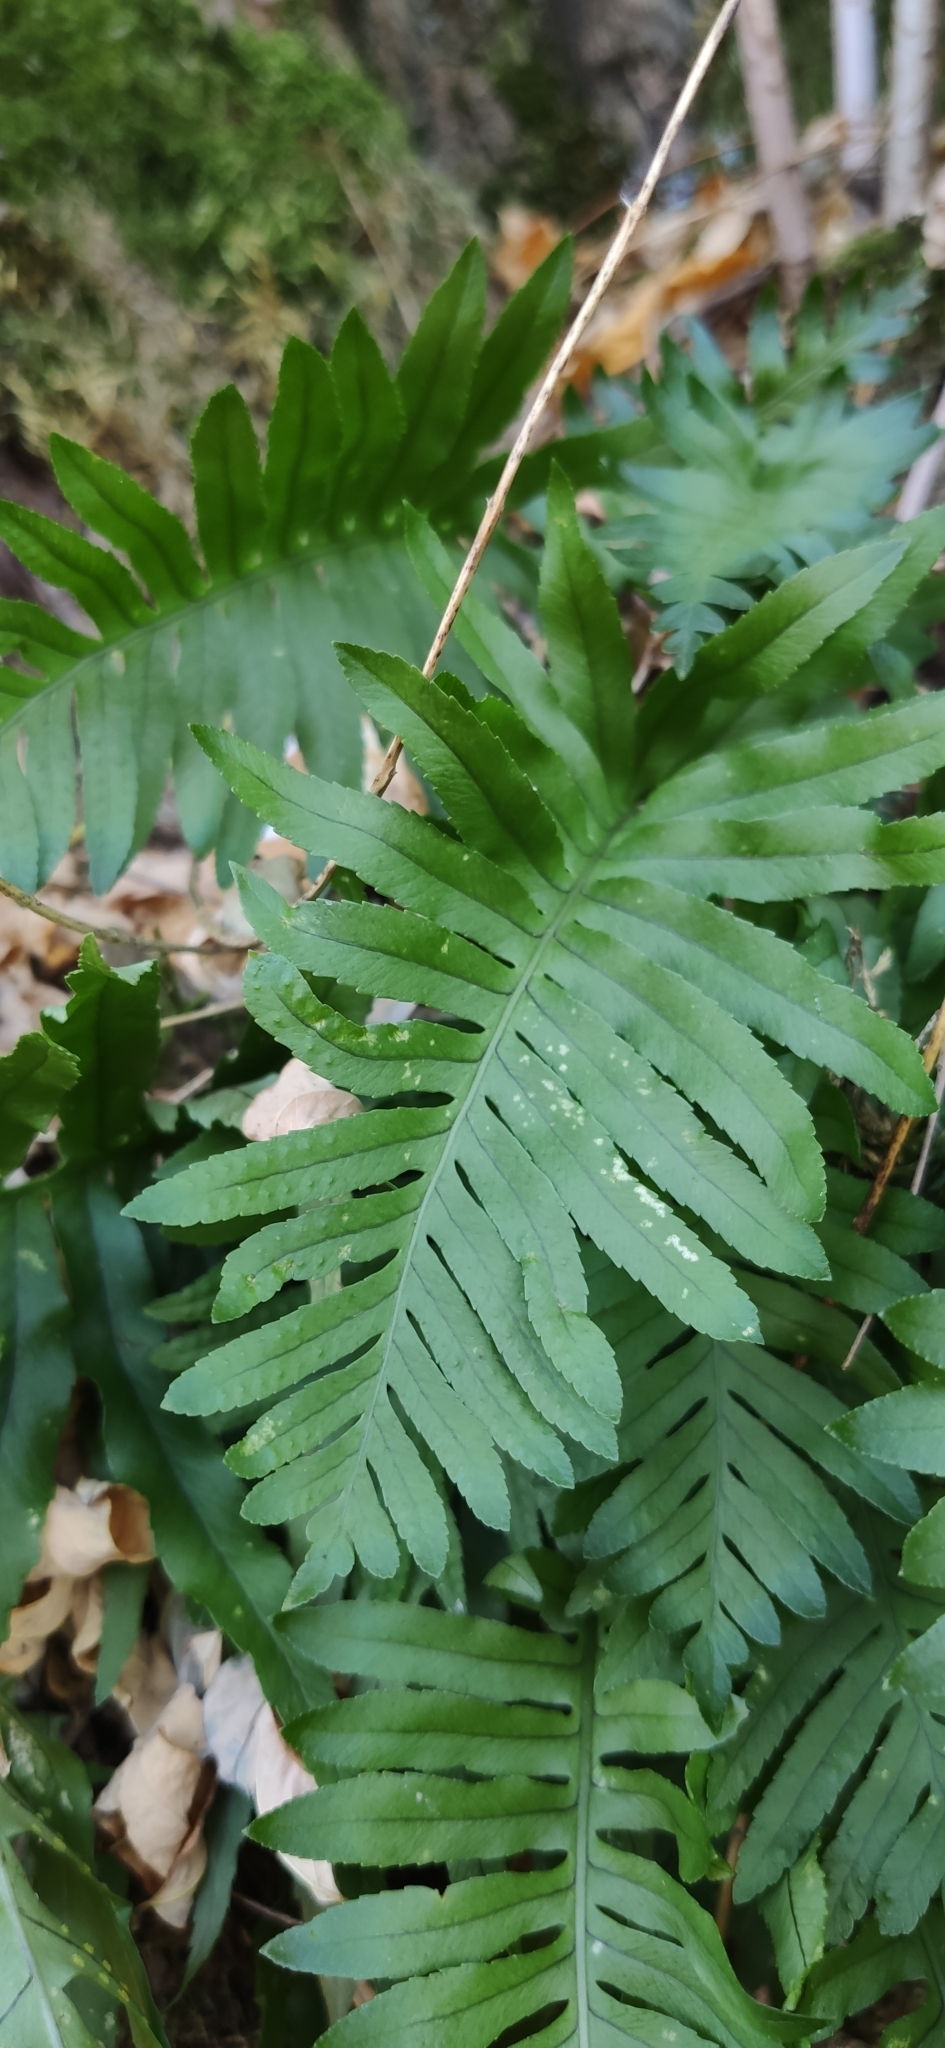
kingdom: Plantae
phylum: Tracheophyta
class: Polypodiopsida
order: Polypodiales
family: Polypodiaceae
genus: Polypodium
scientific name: Polypodium cambricum
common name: Southern polypody
